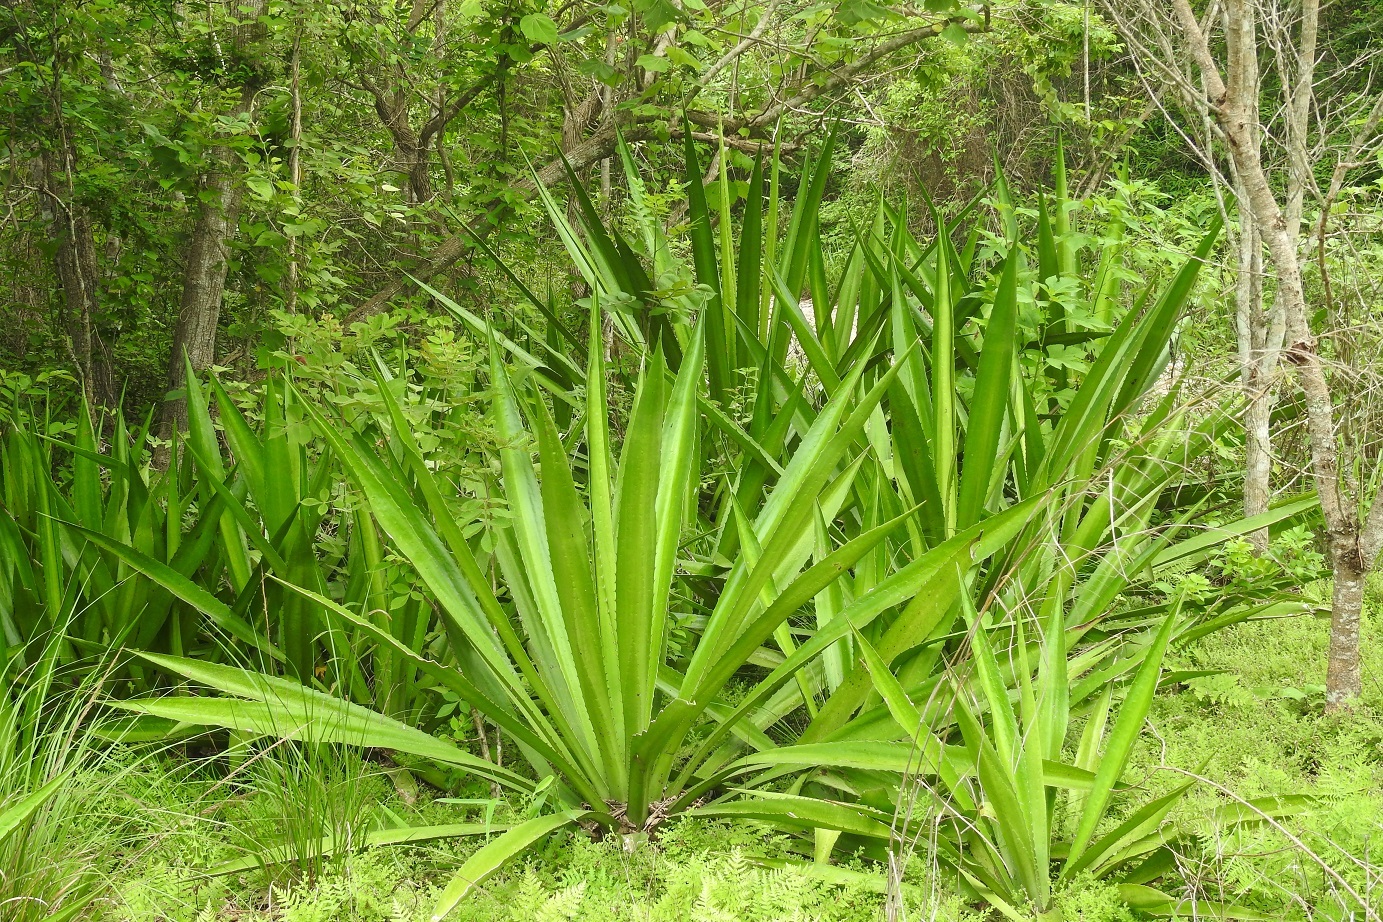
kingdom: Plantae
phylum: Tracheophyta
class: Liliopsida
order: Asparagales
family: Asparagaceae
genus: Furcraea
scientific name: Furcraea cabuya
